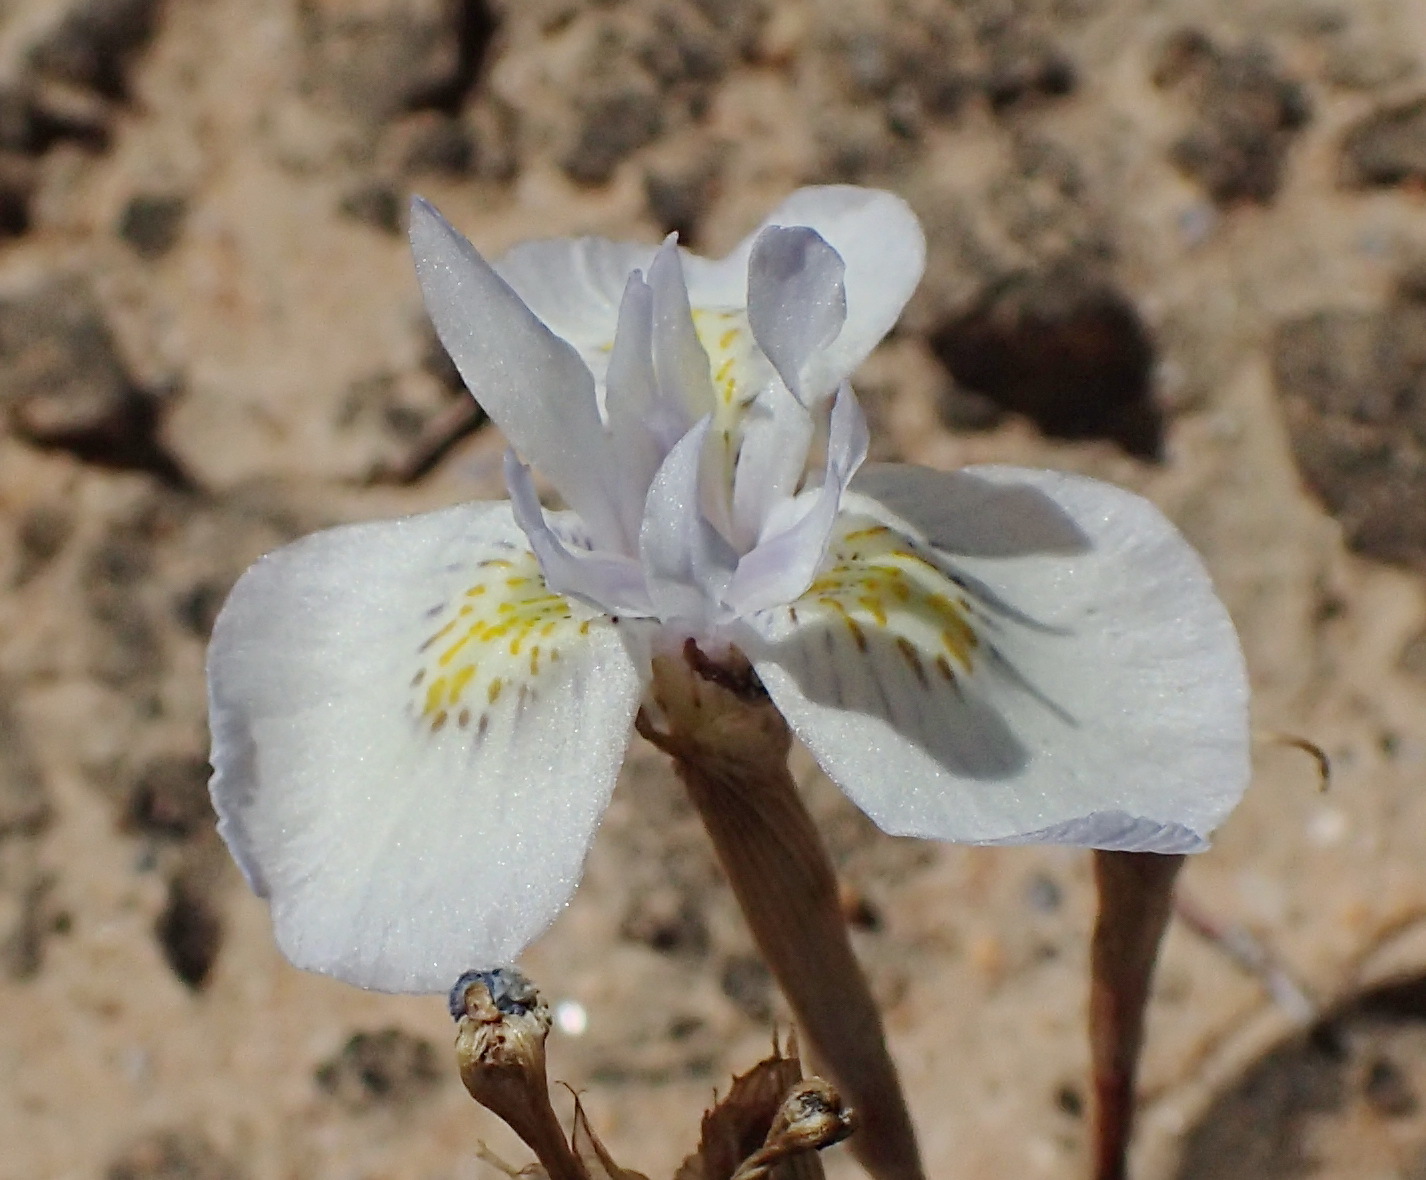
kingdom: Plantae
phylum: Tracheophyta
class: Liliopsida
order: Asparagales
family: Iridaceae
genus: Moraea
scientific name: Moraea serpentina
